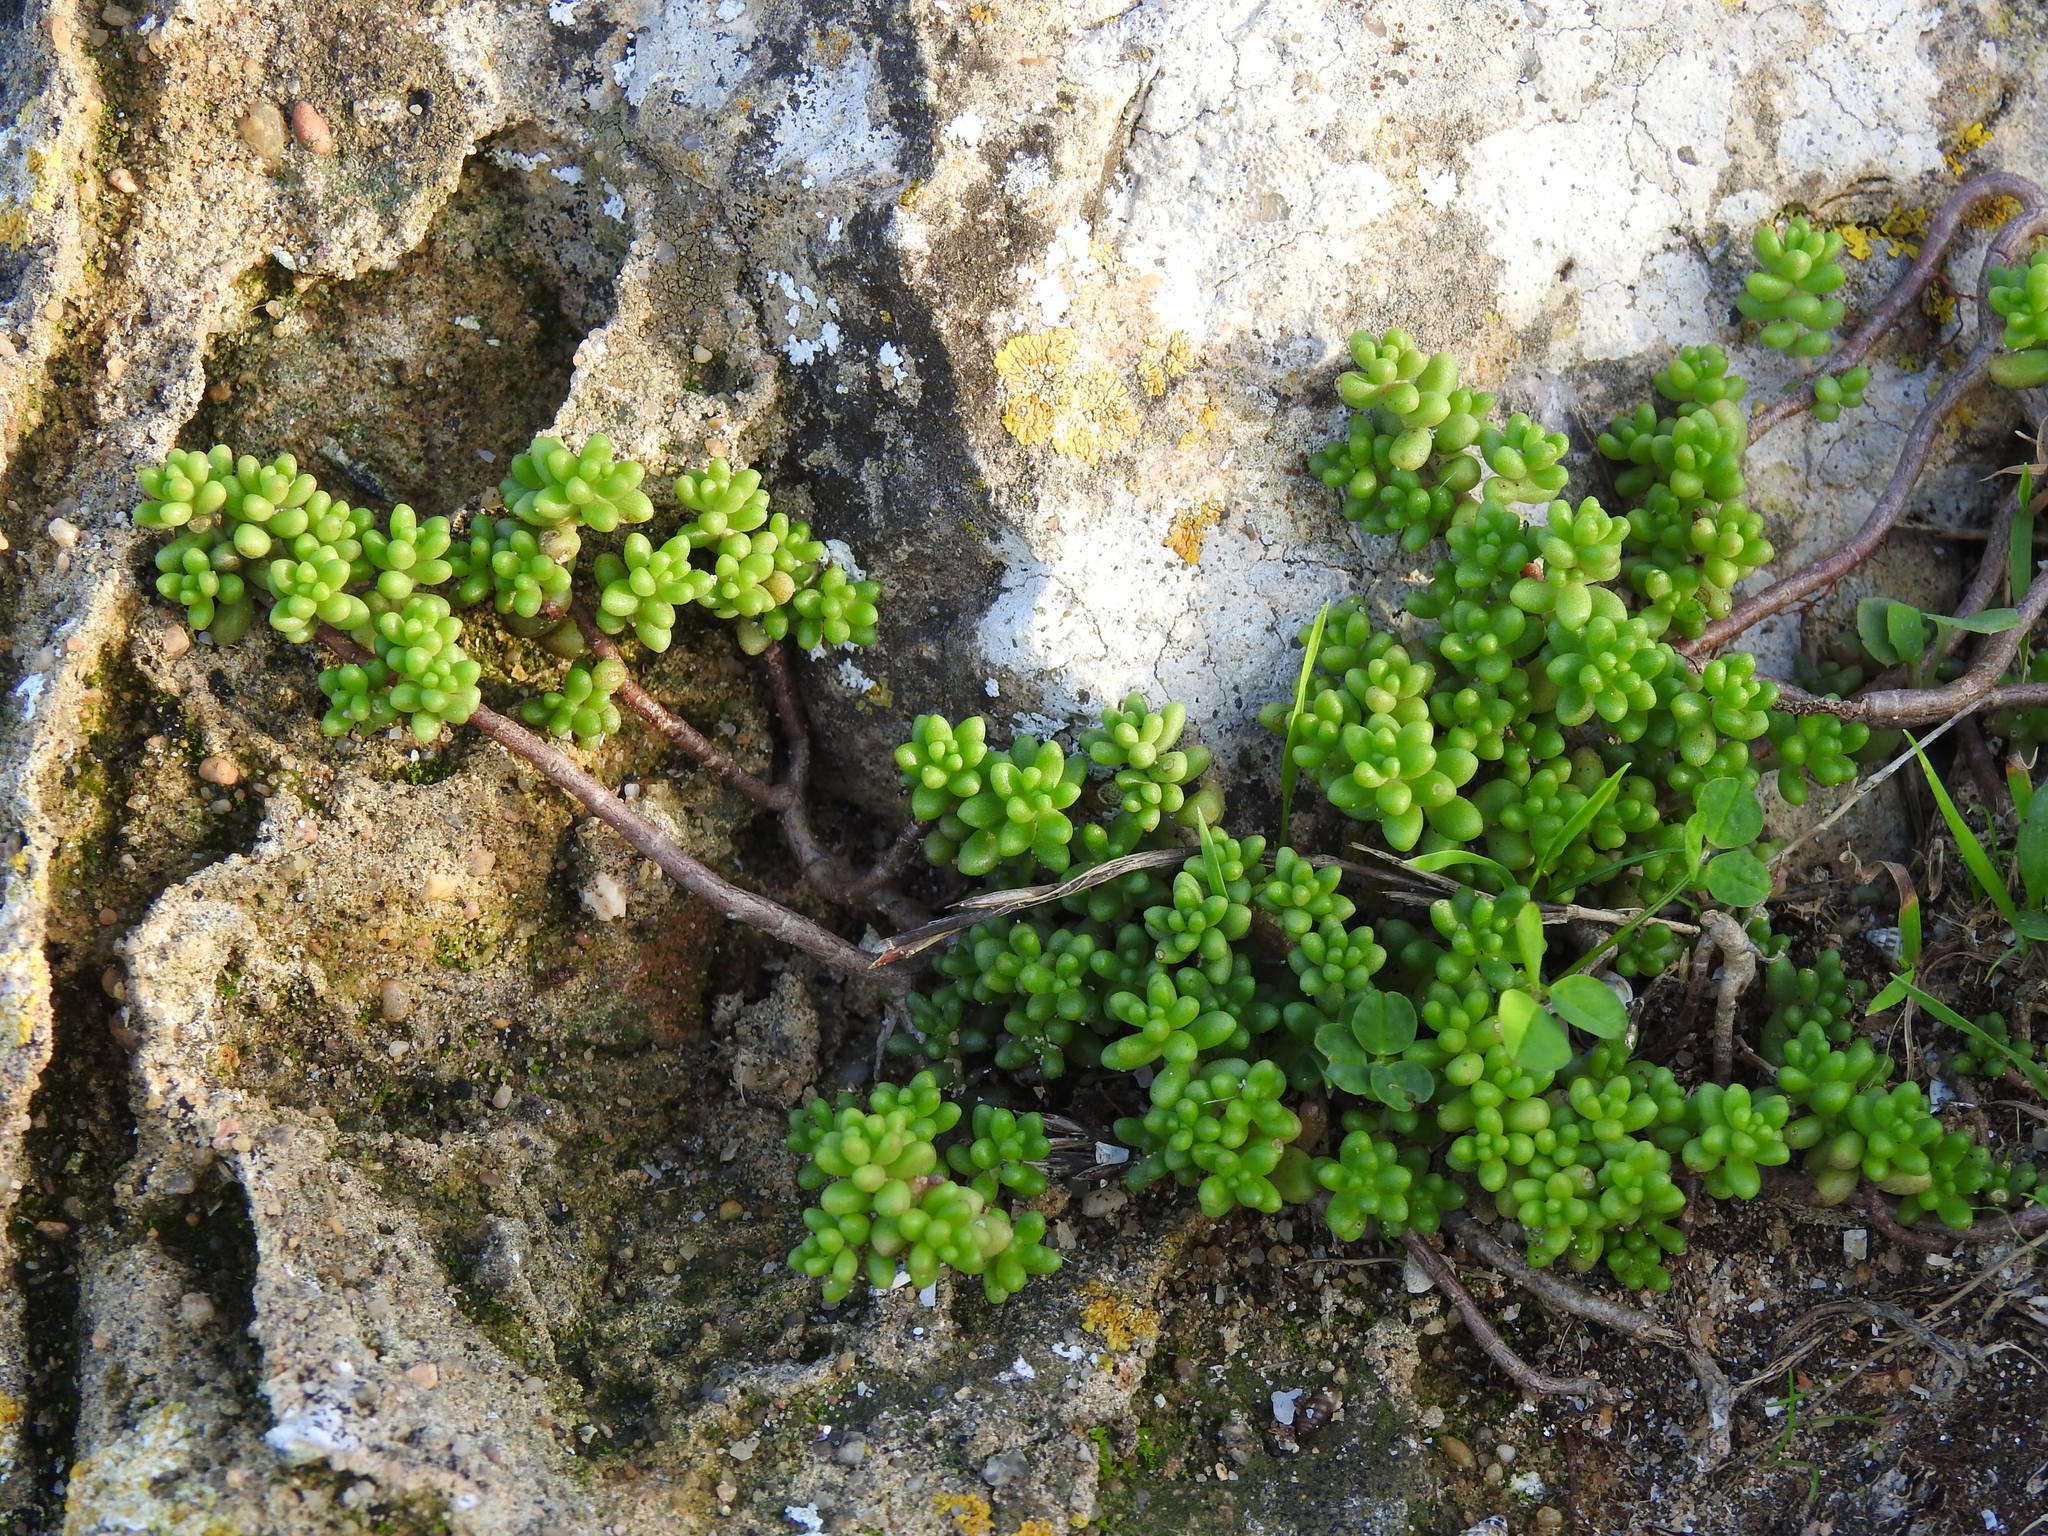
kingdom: Plantae
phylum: Tracheophyta
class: Magnoliopsida
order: Saxifragales
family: Crassulaceae
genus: Sedum
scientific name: Sedum album
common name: White stonecrop
